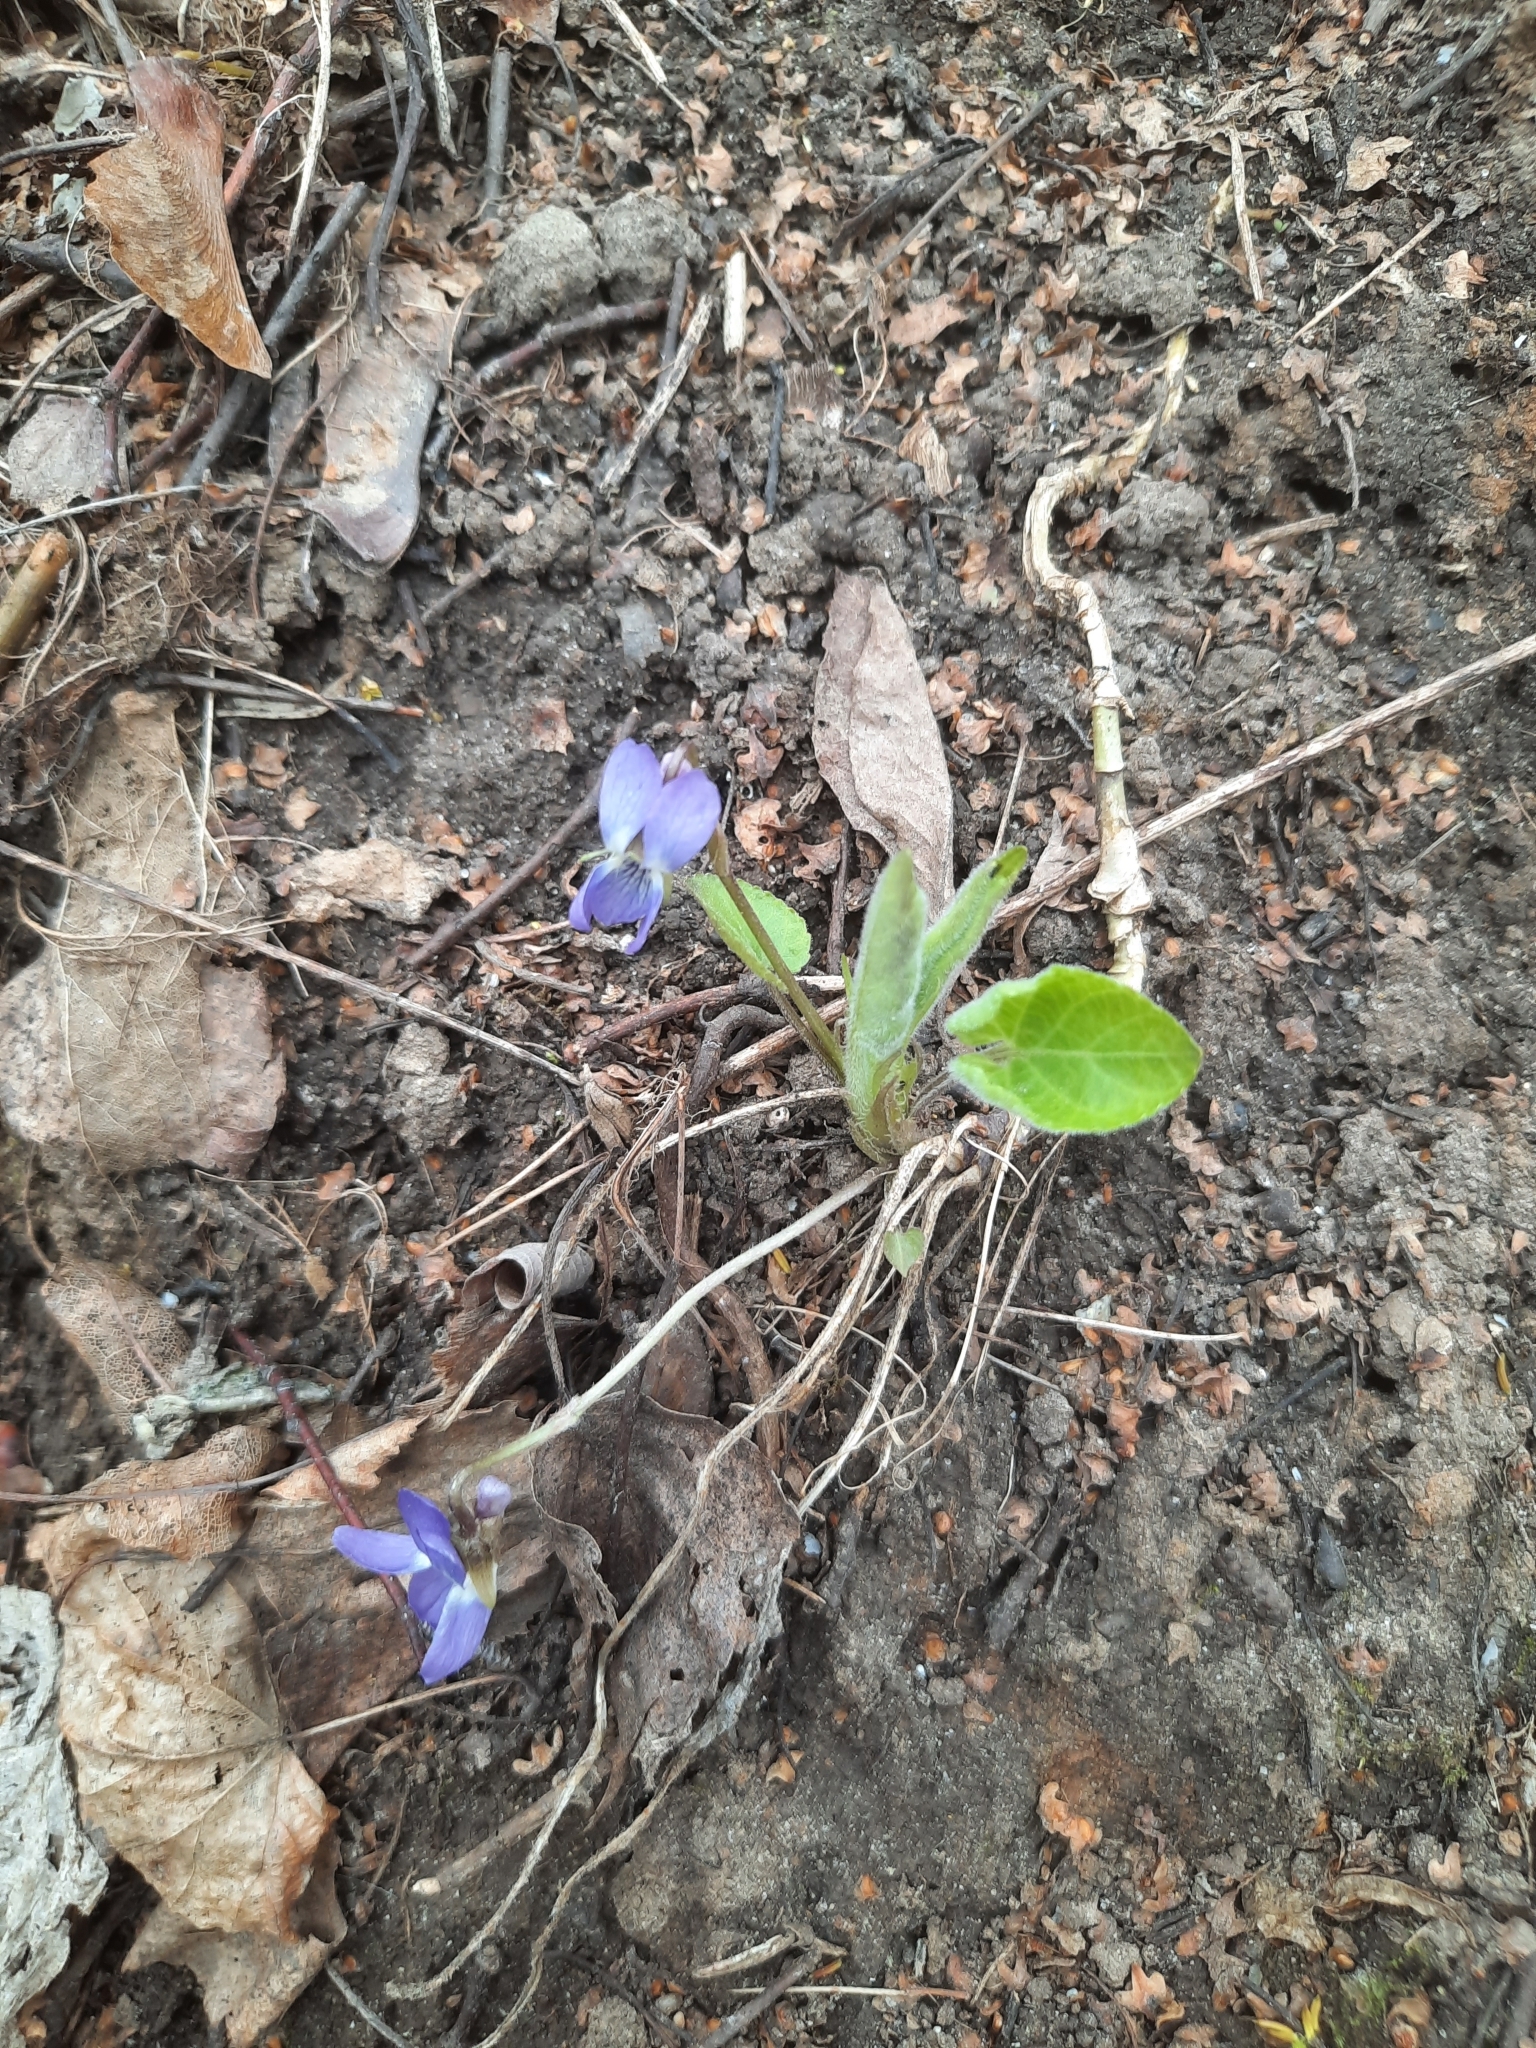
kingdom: Plantae
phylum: Tracheophyta
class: Magnoliopsida
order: Malpighiales
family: Violaceae
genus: Viola
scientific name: Viola hirta
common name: Hairy violet
